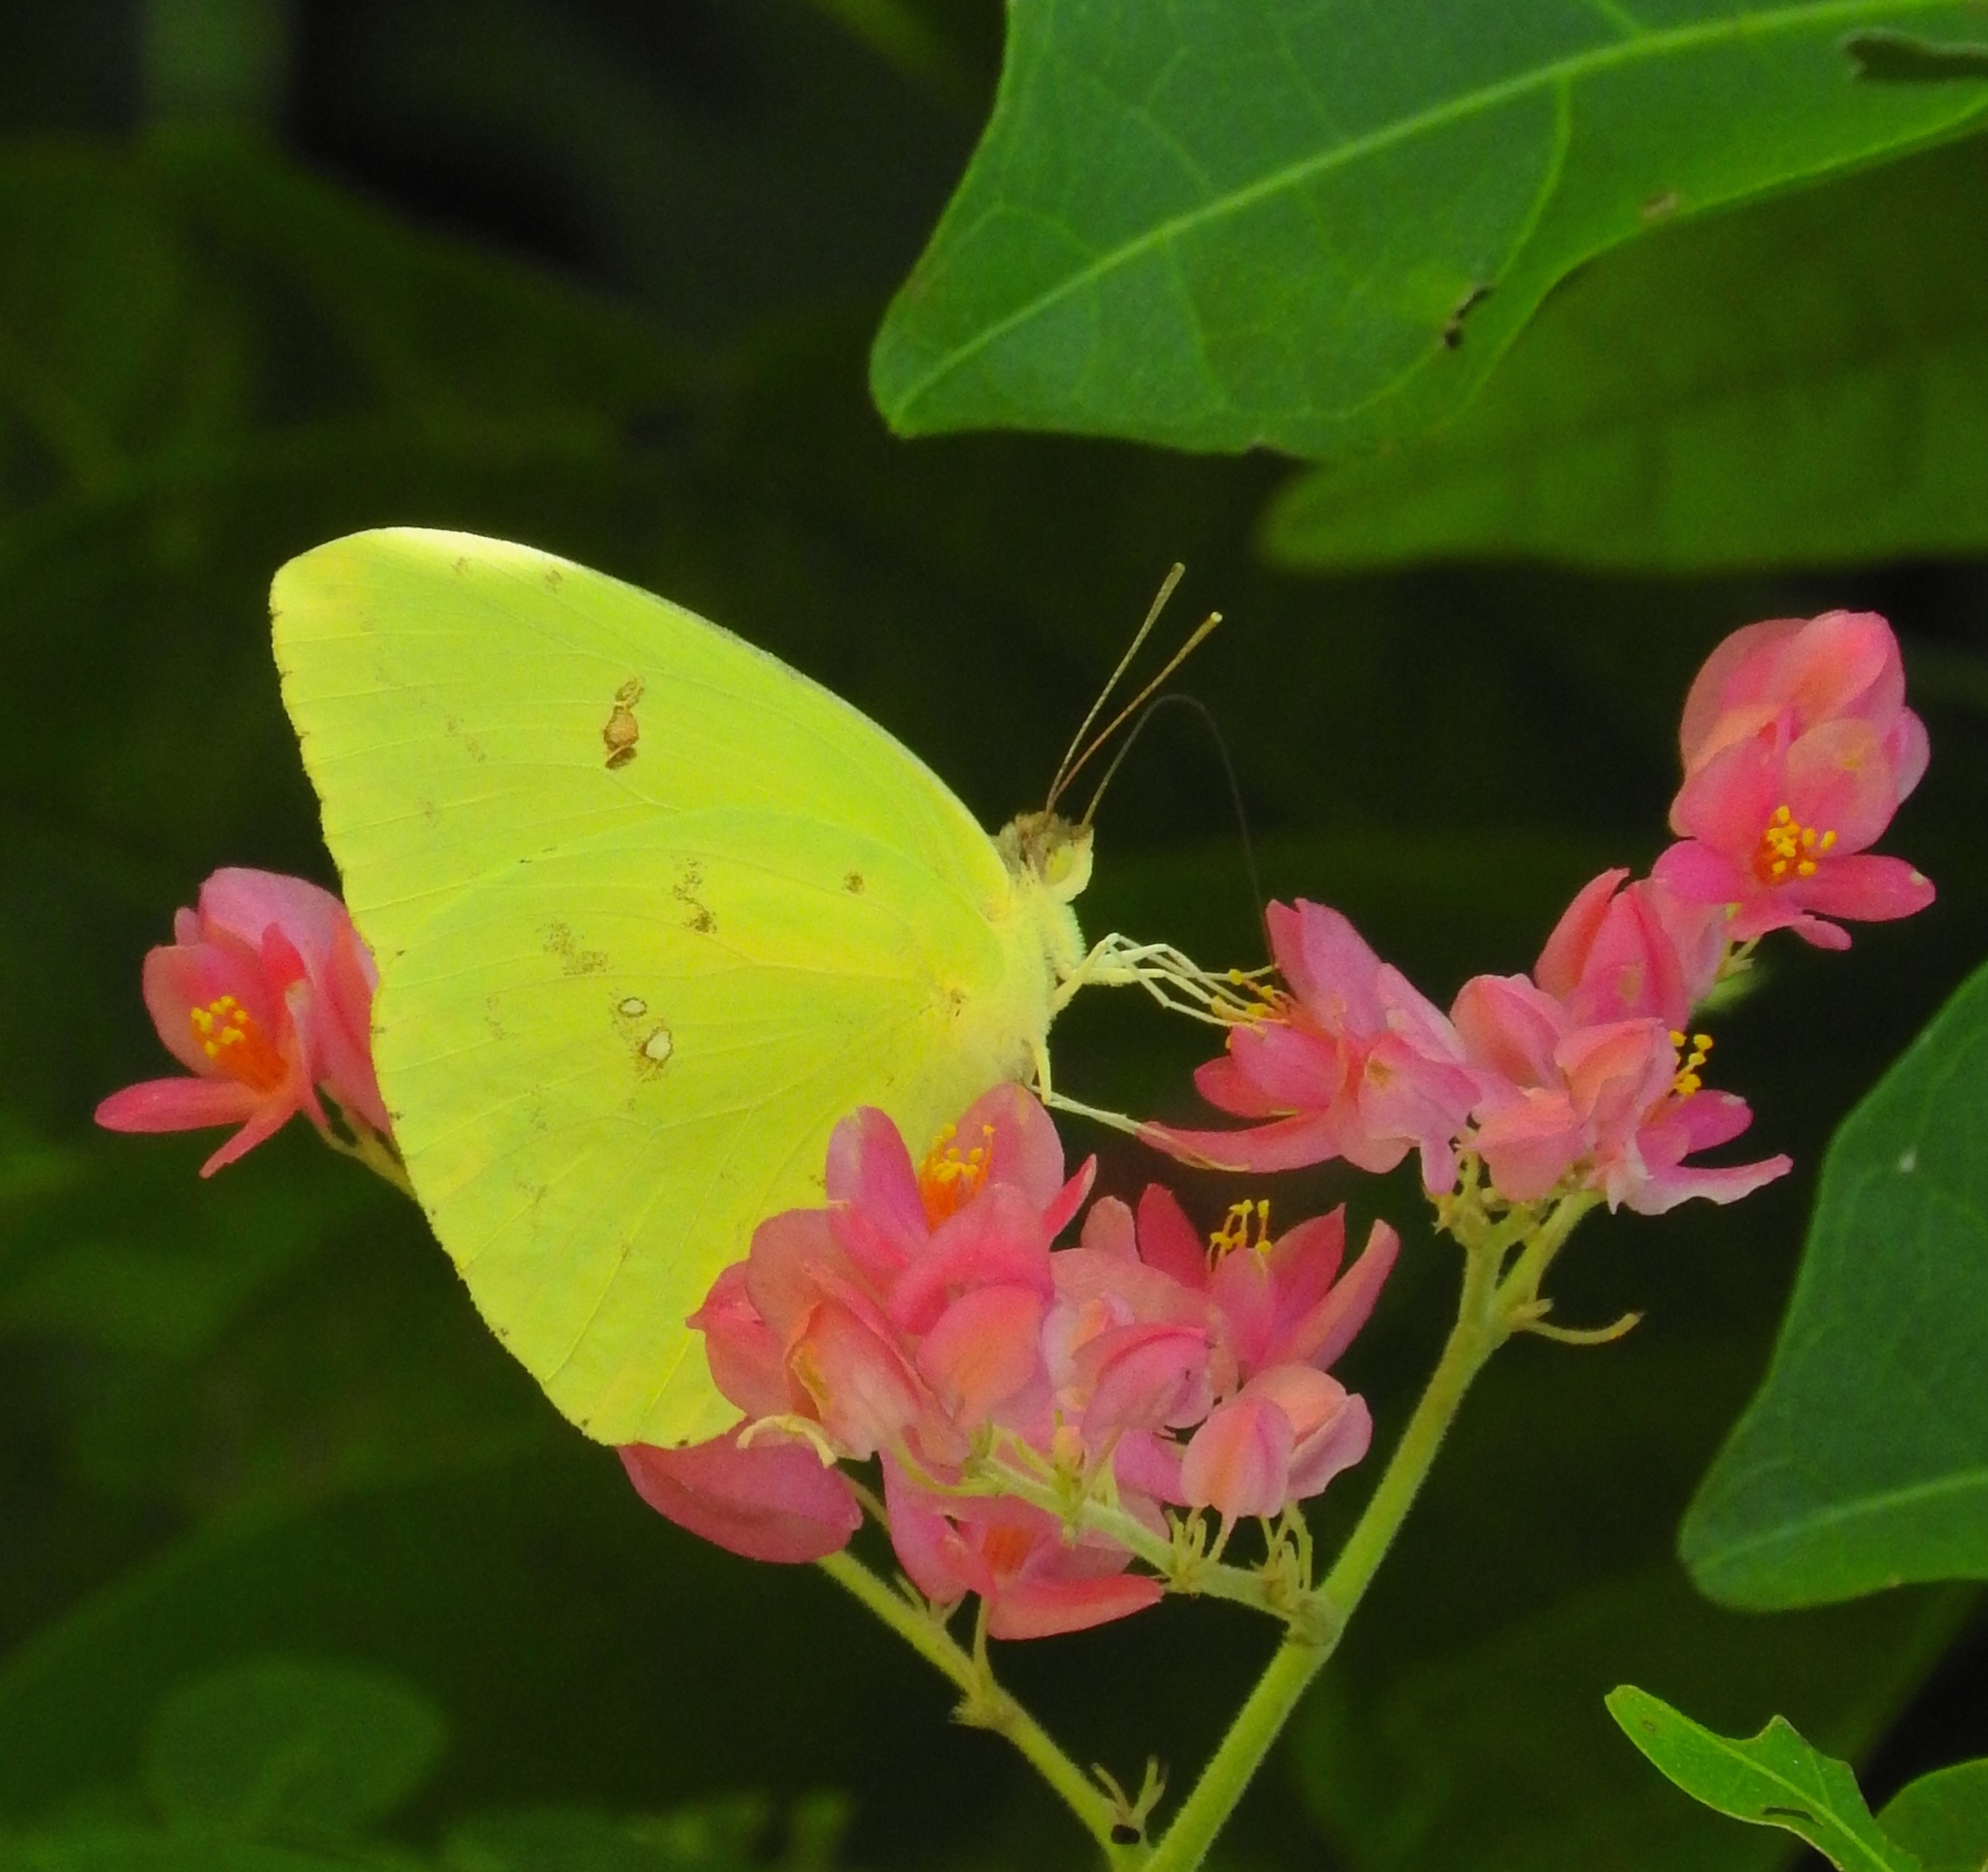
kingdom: Animalia
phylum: Arthropoda
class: Insecta
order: Lepidoptera
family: Pieridae
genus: Phoebis
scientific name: Phoebis marcellina
